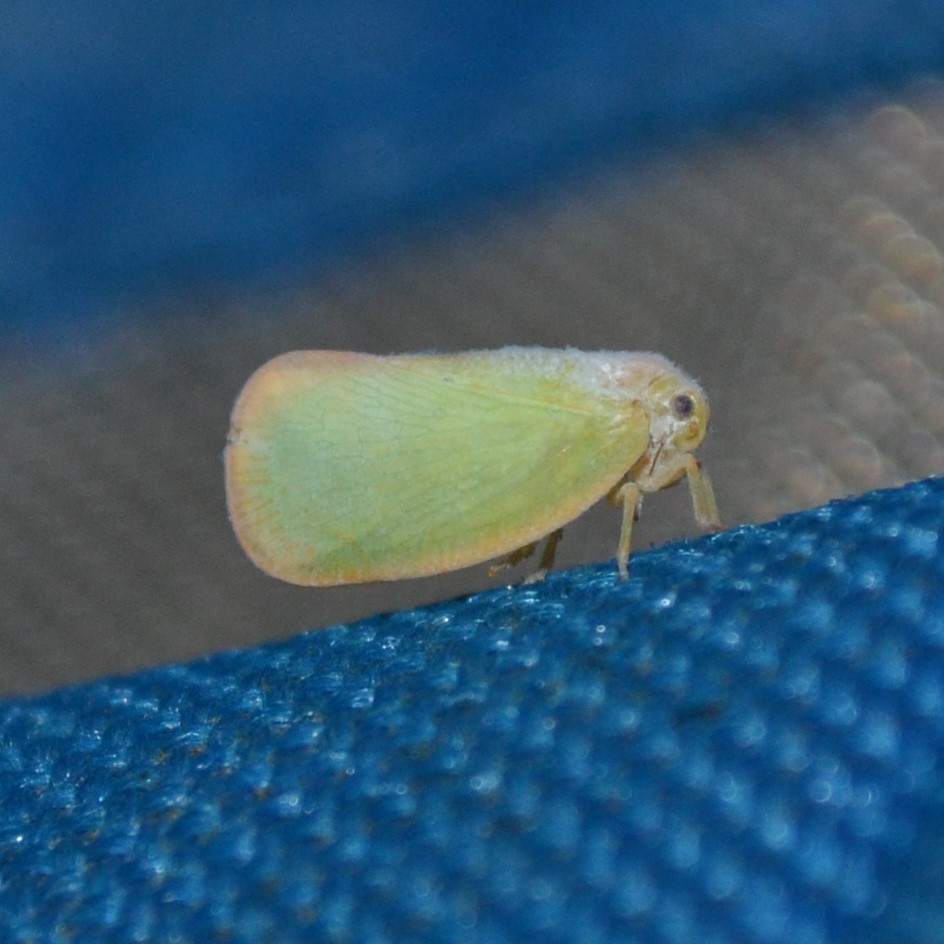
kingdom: Animalia
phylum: Arthropoda
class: Insecta
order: Hemiptera
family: Flatidae
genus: Ormenoides
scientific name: Ormenoides venusta
